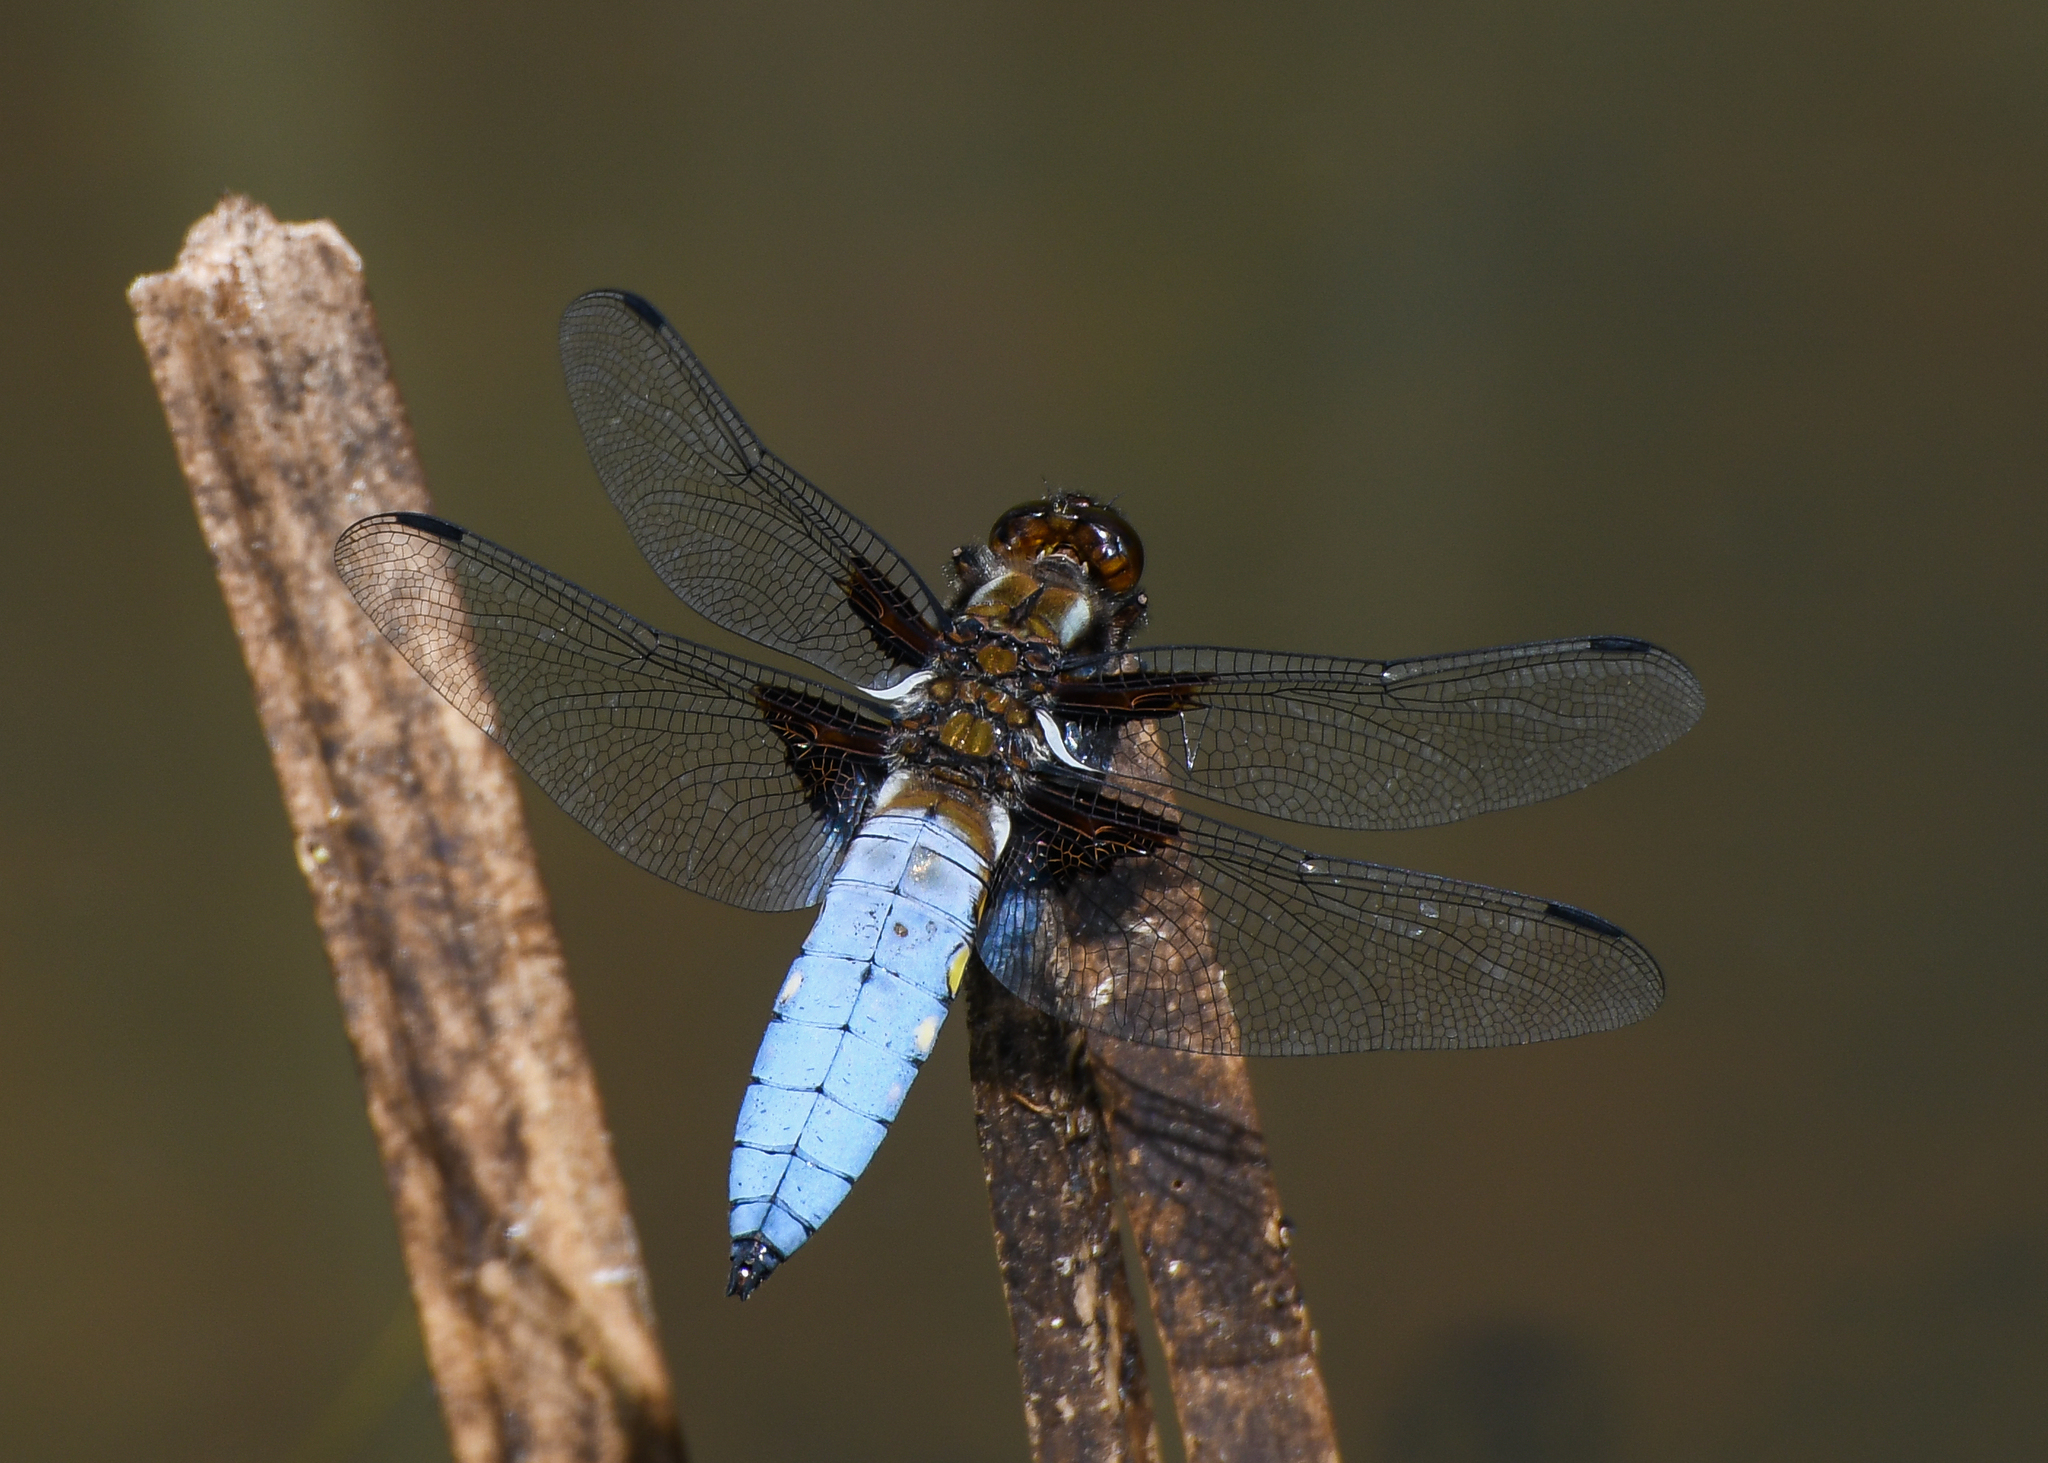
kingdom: Animalia
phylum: Arthropoda
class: Insecta
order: Odonata
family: Libellulidae
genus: Libellula
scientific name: Libellula depressa
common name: Broad-bodied chaser
